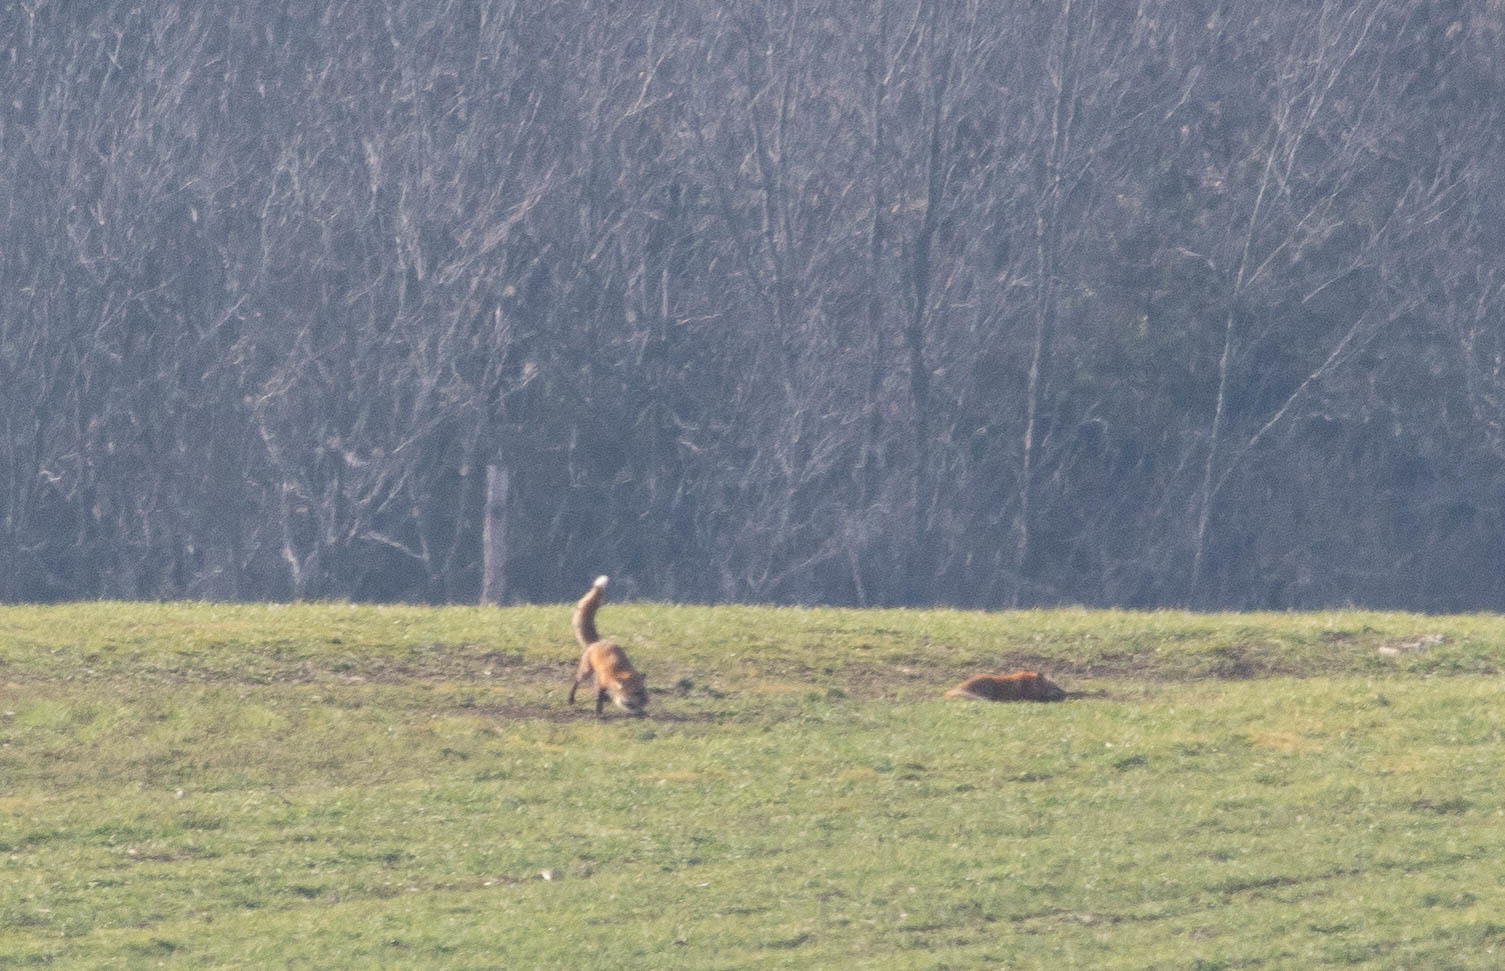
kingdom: Animalia
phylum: Chordata
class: Mammalia
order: Carnivora
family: Canidae
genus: Vulpes
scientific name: Vulpes vulpes
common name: Red fox
